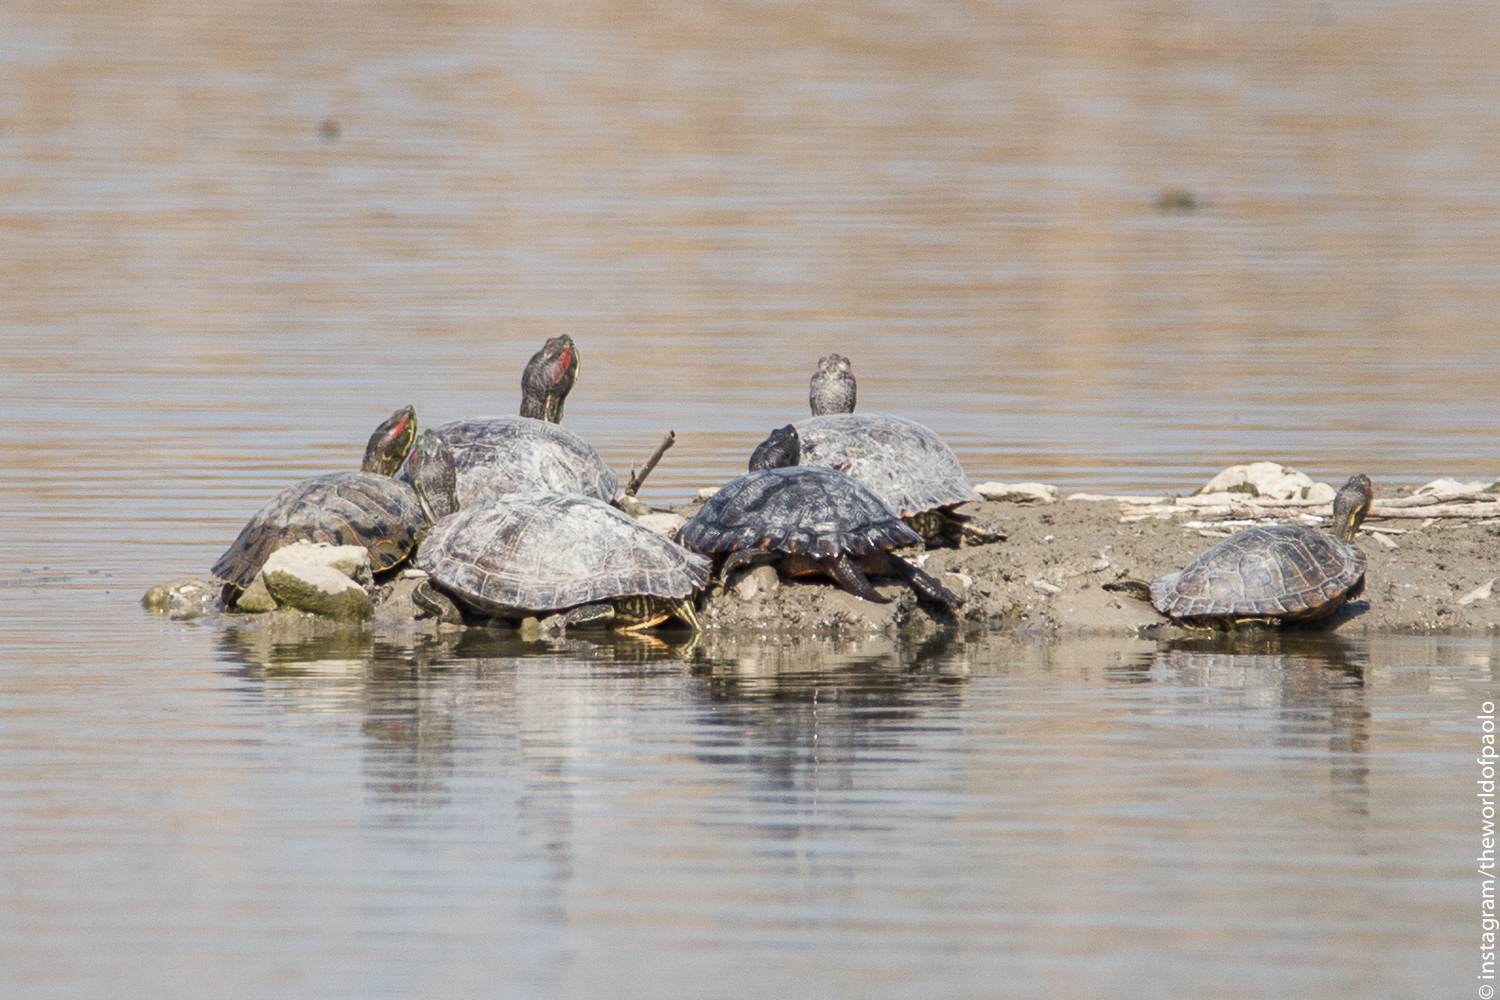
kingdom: Animalia
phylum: Chordata
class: Testudines
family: Emydidae
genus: Trachemys
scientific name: Trachemys scripta
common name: Slider
